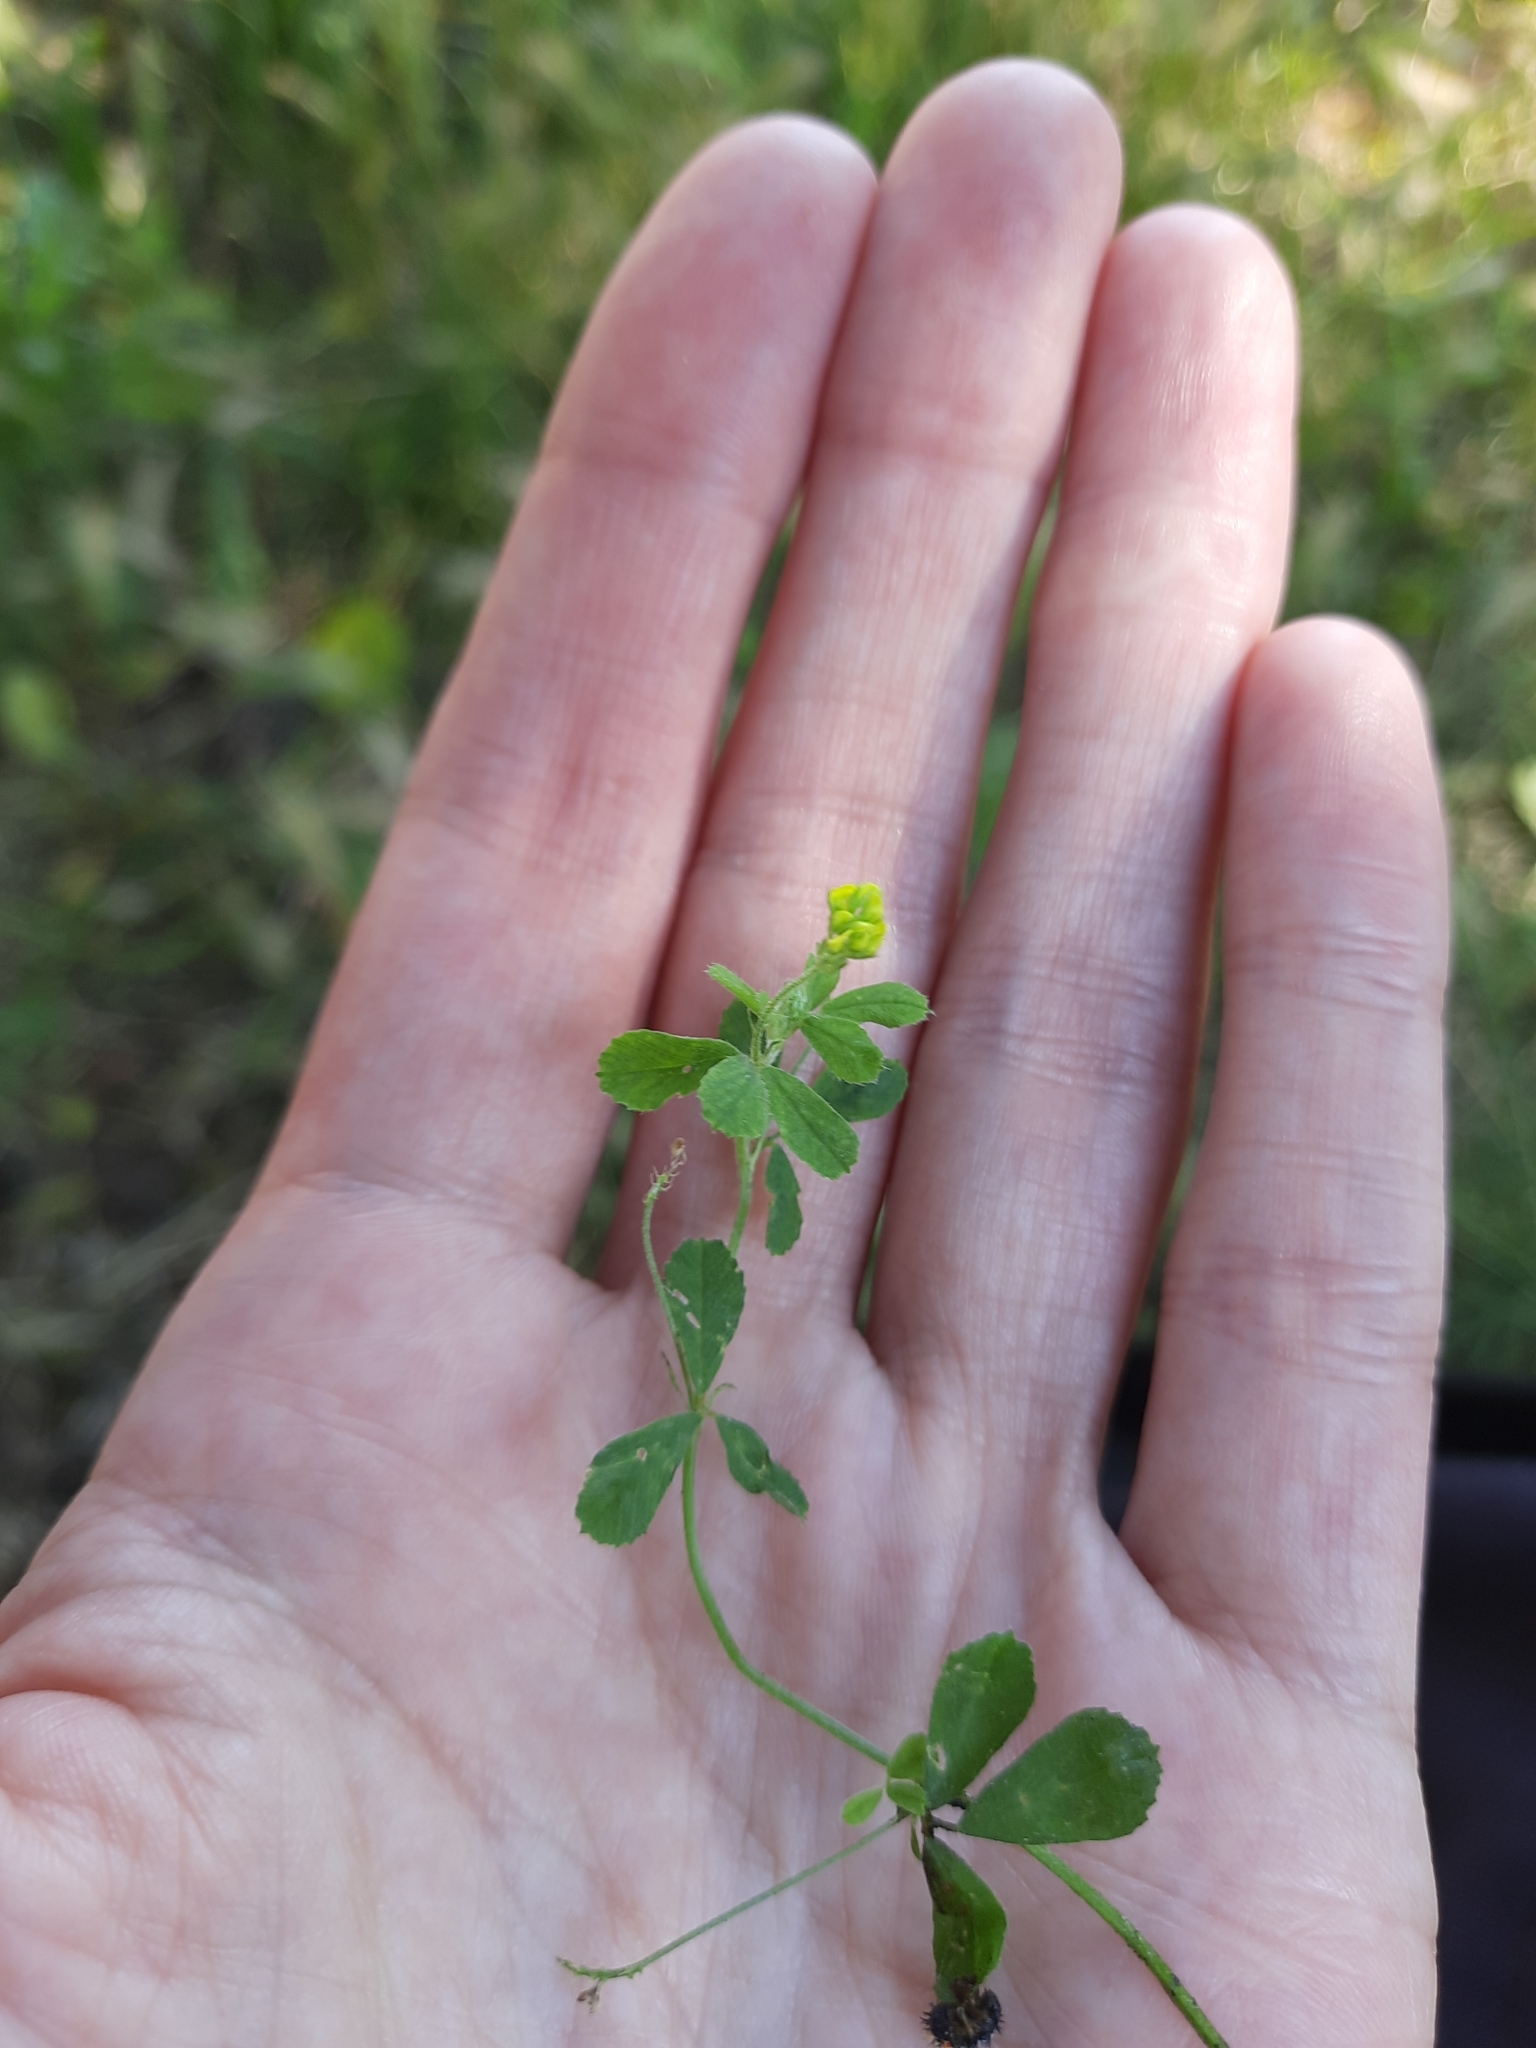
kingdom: Plantae
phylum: Tracheophyta
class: Magnoliopsida
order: Fabales
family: Fabaceae
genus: Medicago
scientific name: Medicago lupulina
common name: Black medick
